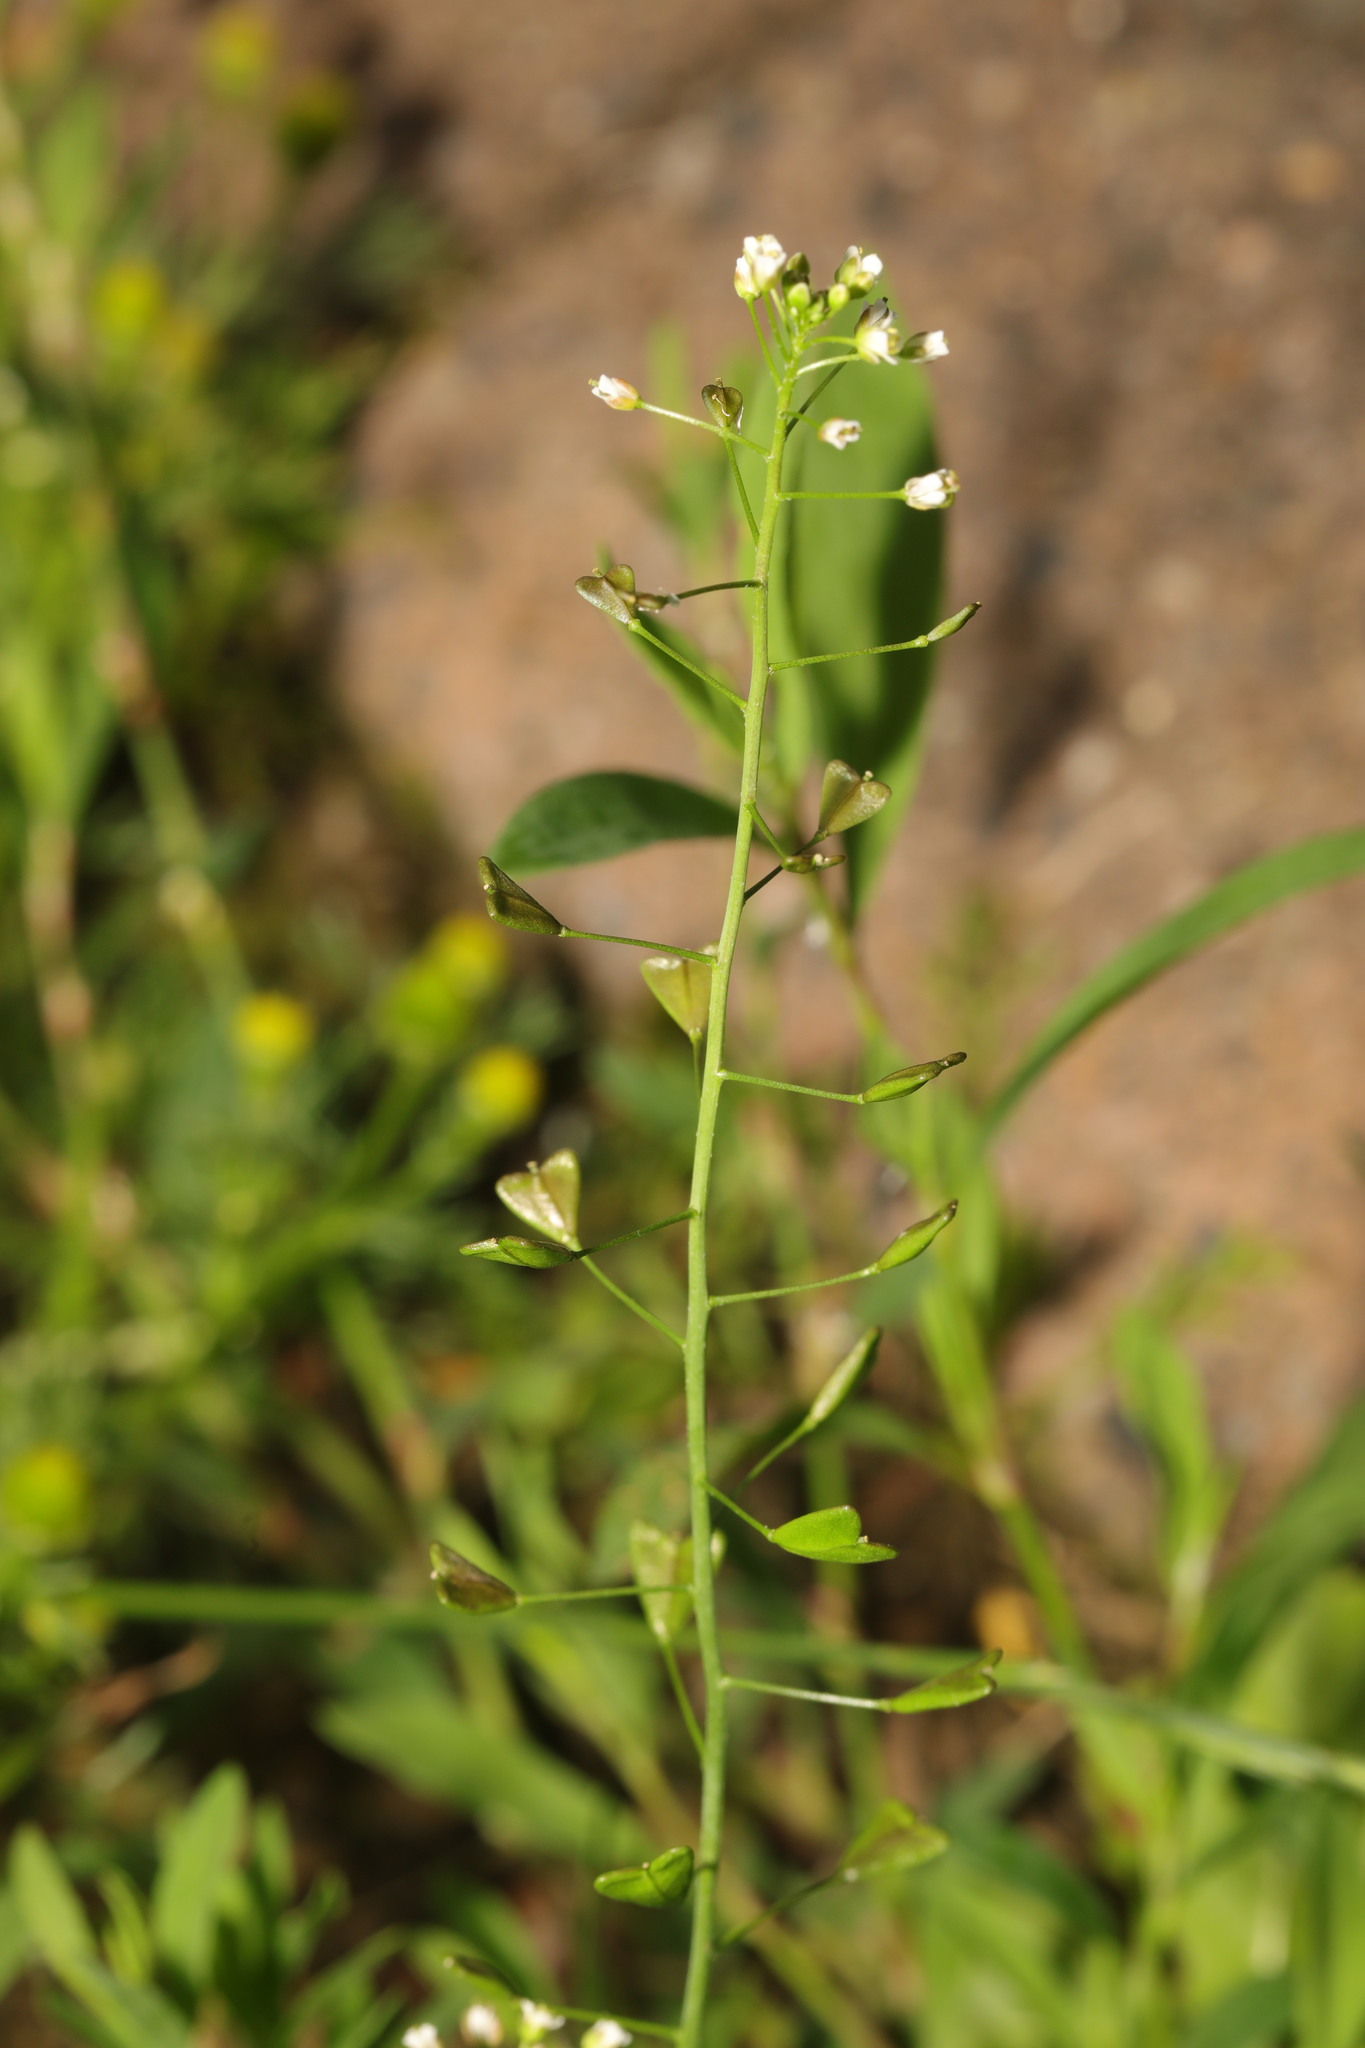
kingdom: Plantae
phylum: Tracheophyta
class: Magnoliopsida
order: Brassicales
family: Brassicaceae
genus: Capsella
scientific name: Capsella bursa-pastoris
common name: Shepherd's purse
